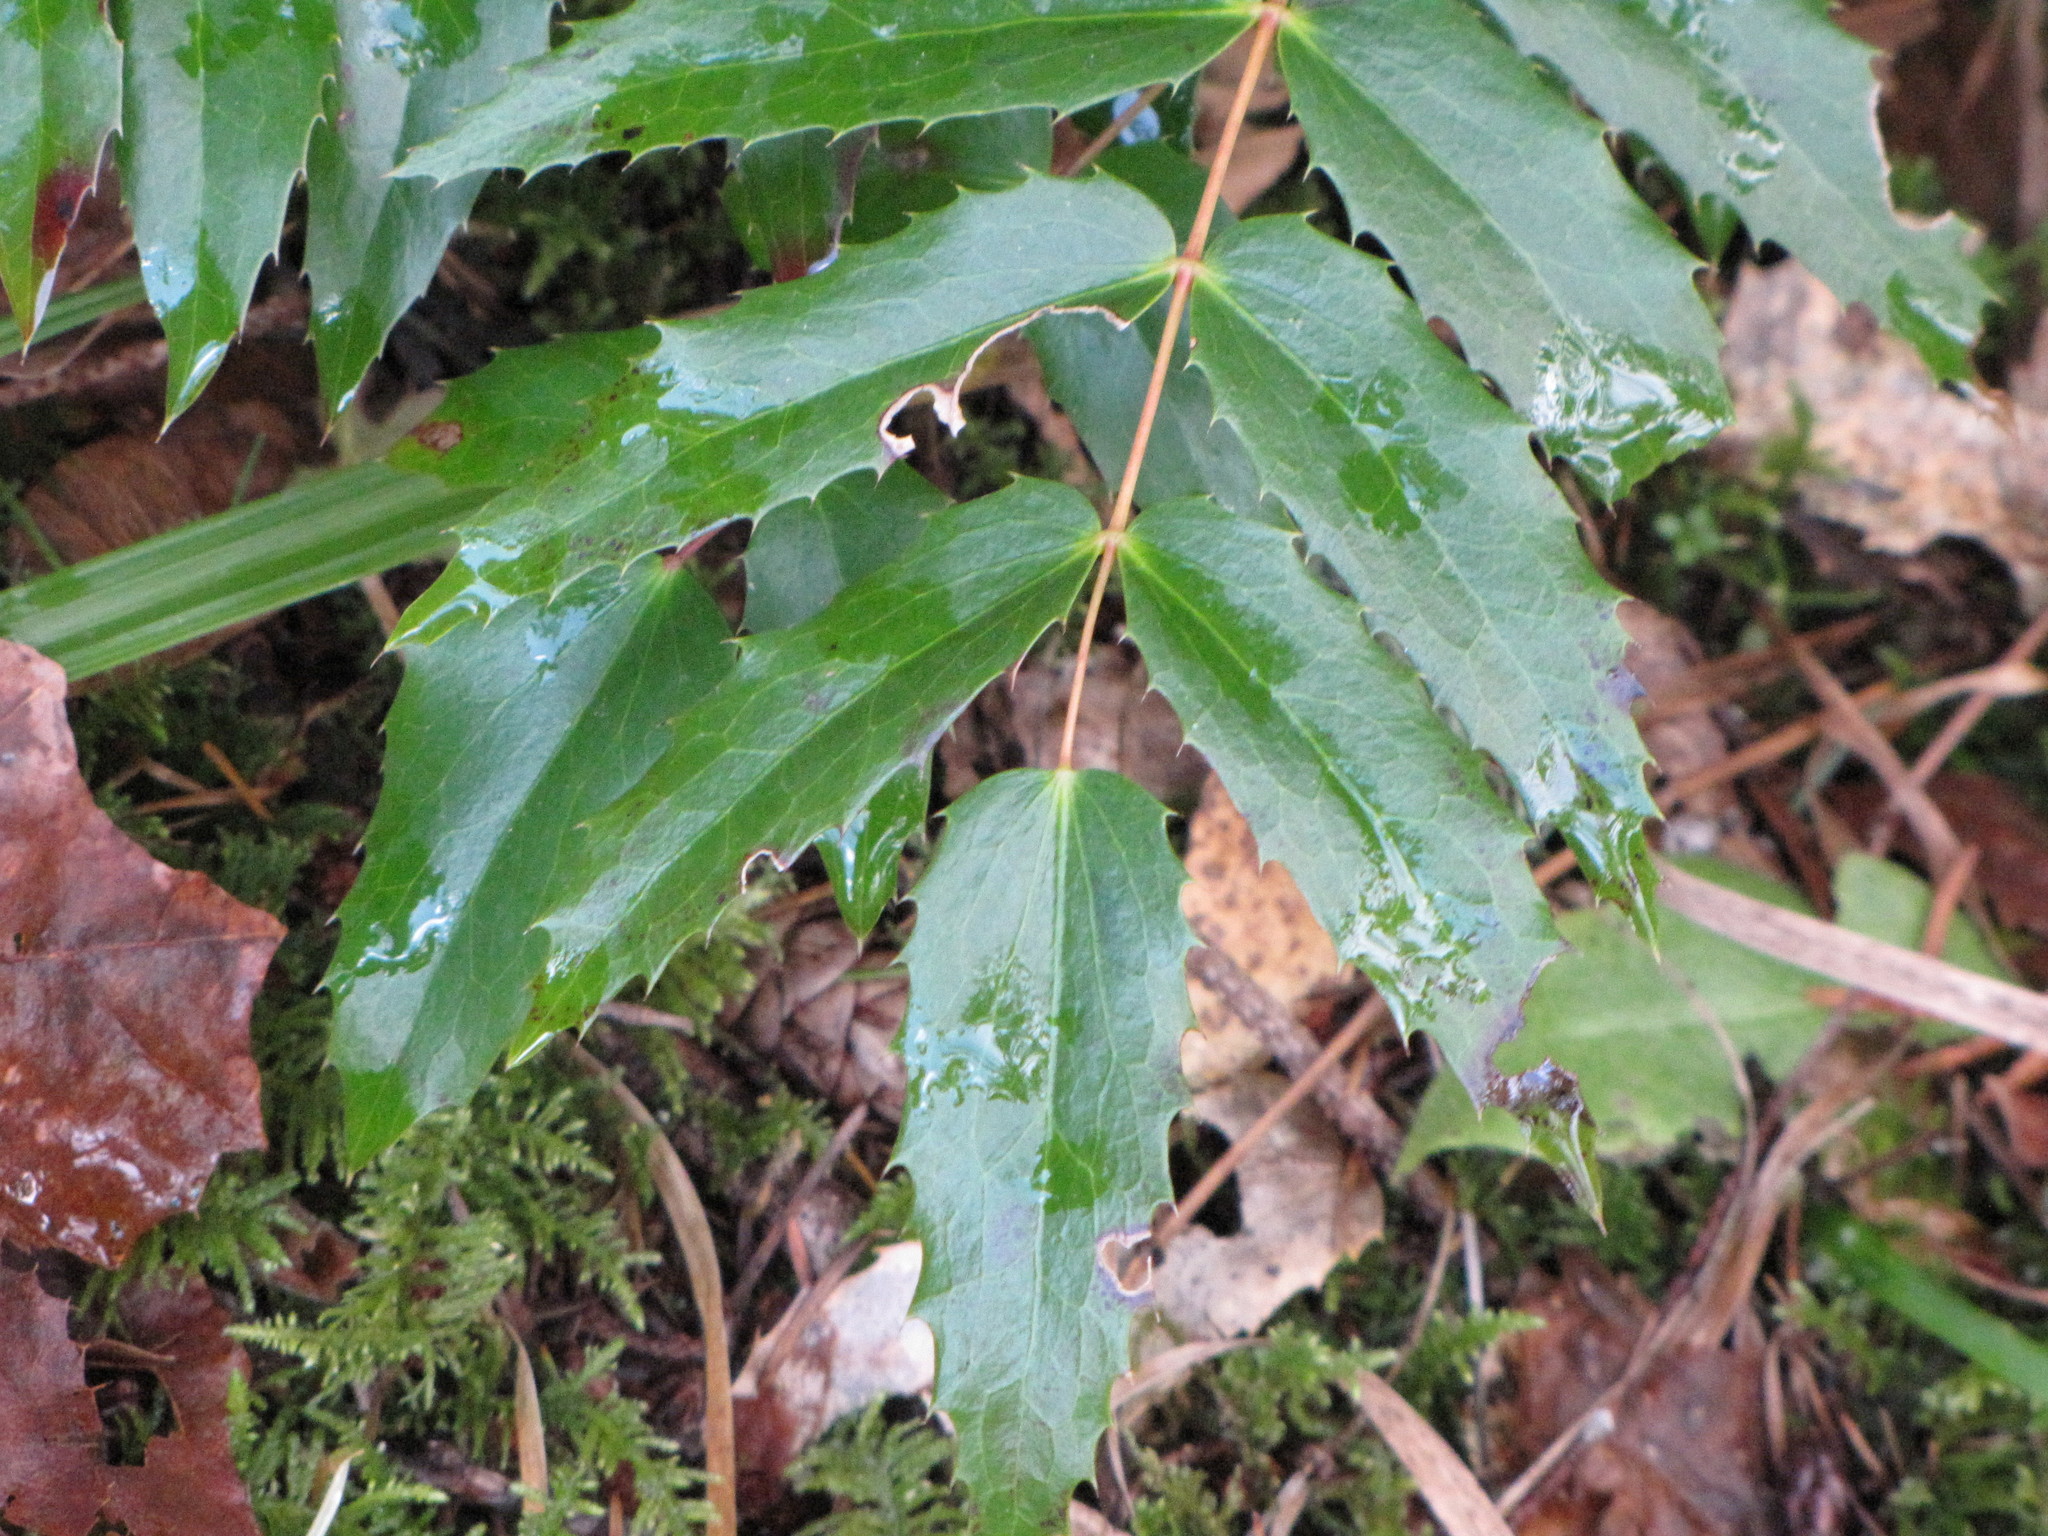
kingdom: Plantae
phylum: Tracheophyta
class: Magnoliopsida
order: Ranunculales
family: Berberidaceae
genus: Mahonia
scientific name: Mahonia nervosa
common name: Cascade oregon-grape
